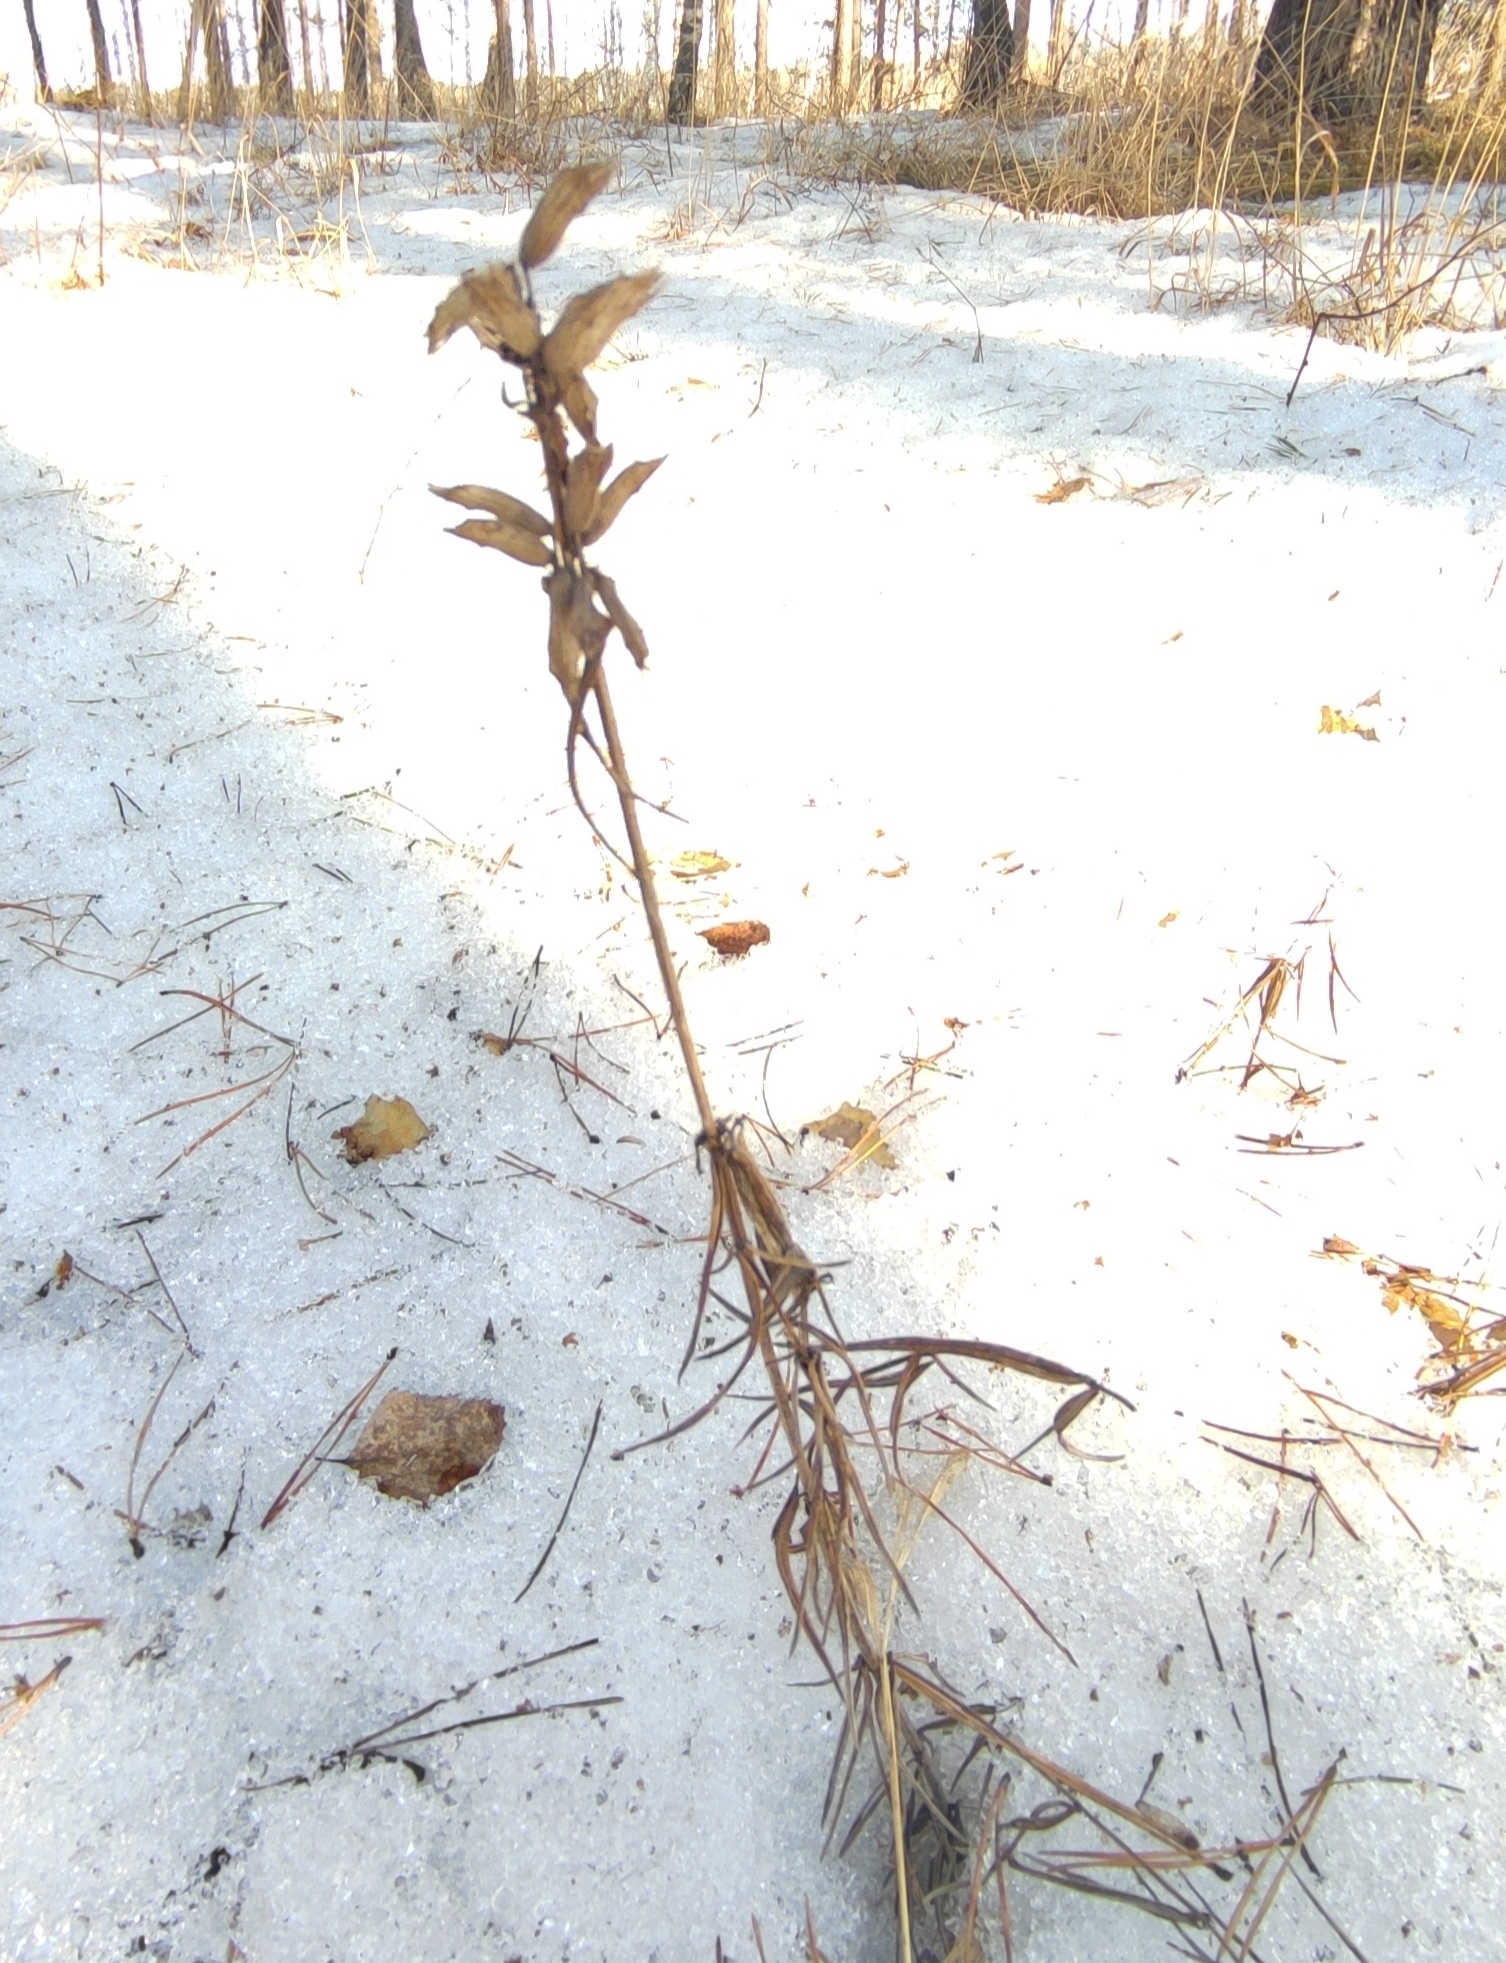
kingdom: Plantae
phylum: Tracheophyta
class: Magnoliopsida
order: Lamiales
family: Lamiaceae
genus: Dracocephalum
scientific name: Dracocephalum ruyschiana
